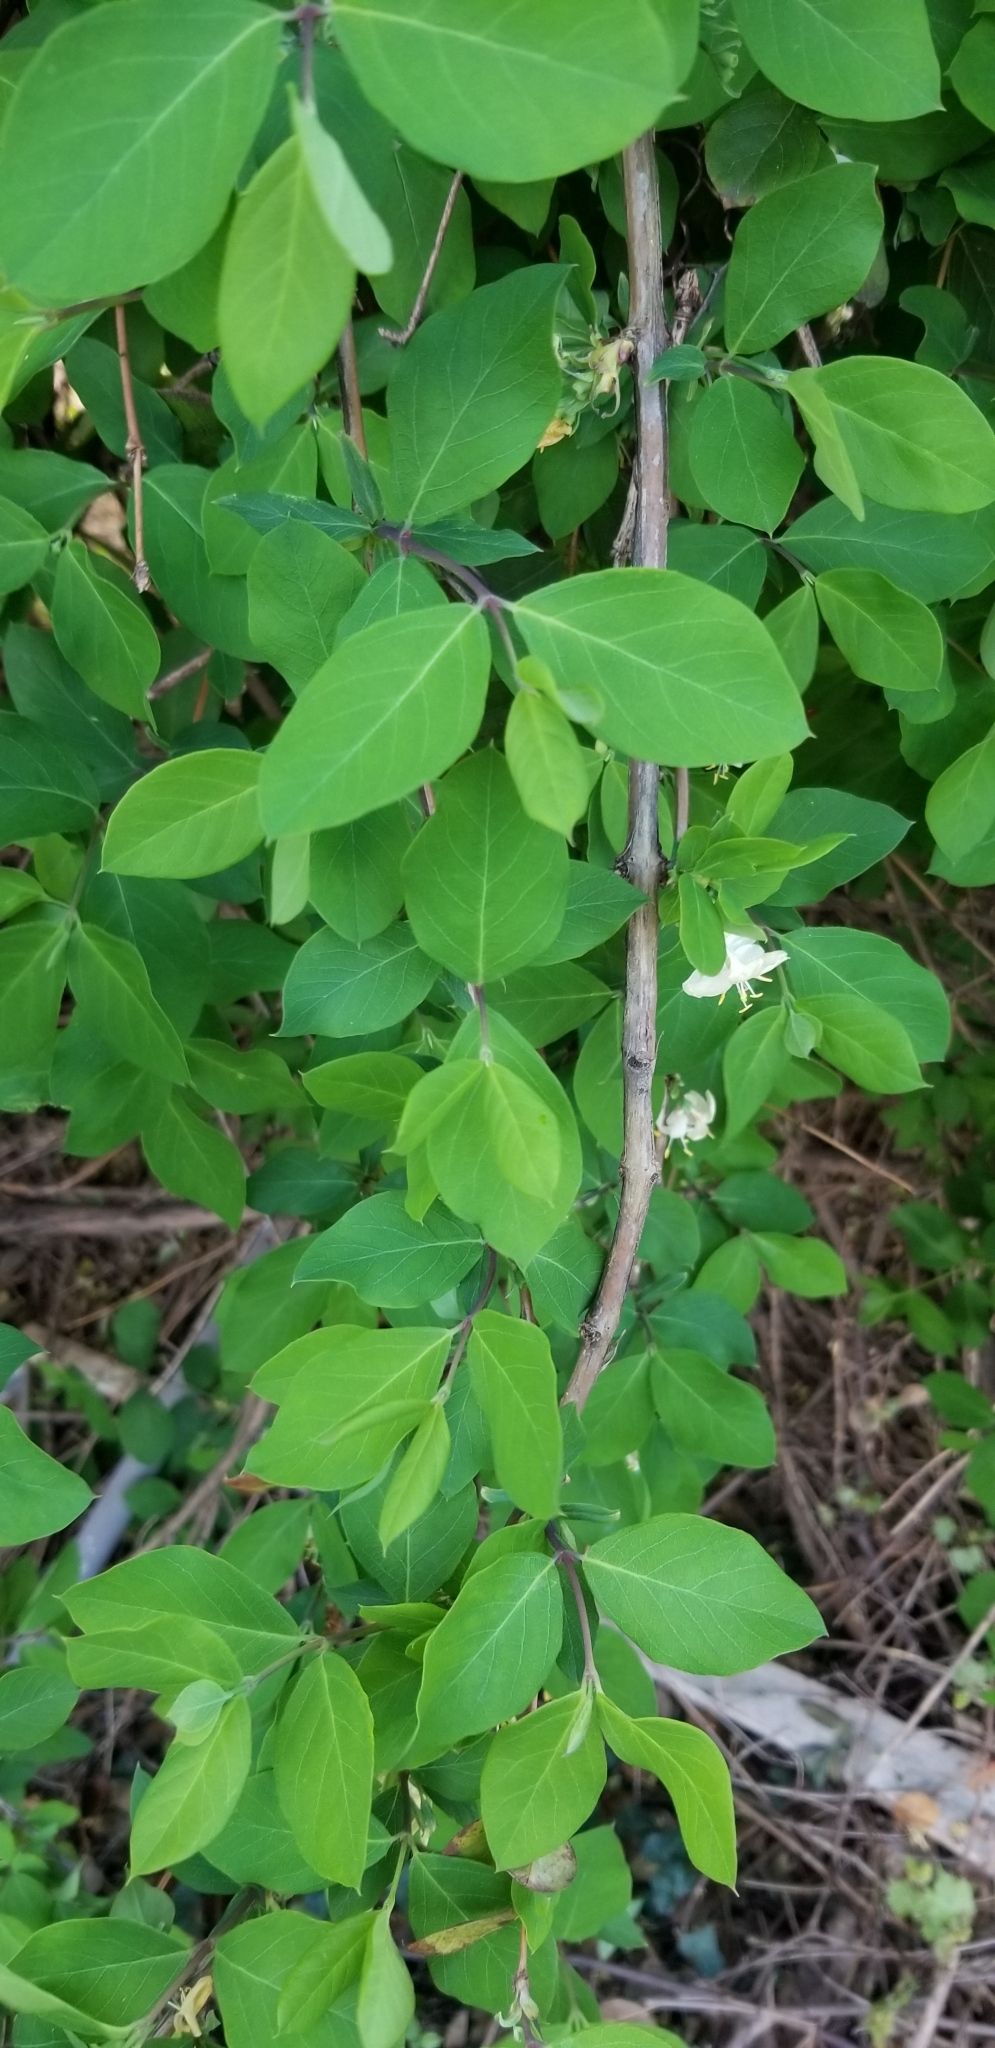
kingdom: Plantae
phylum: Tracheophyta
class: Magnoliopsida
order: Dipsacales
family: Caprifoliaceae
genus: Lonicera
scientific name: Lonicera fragrantissima
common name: Fragrant honeysuckle
